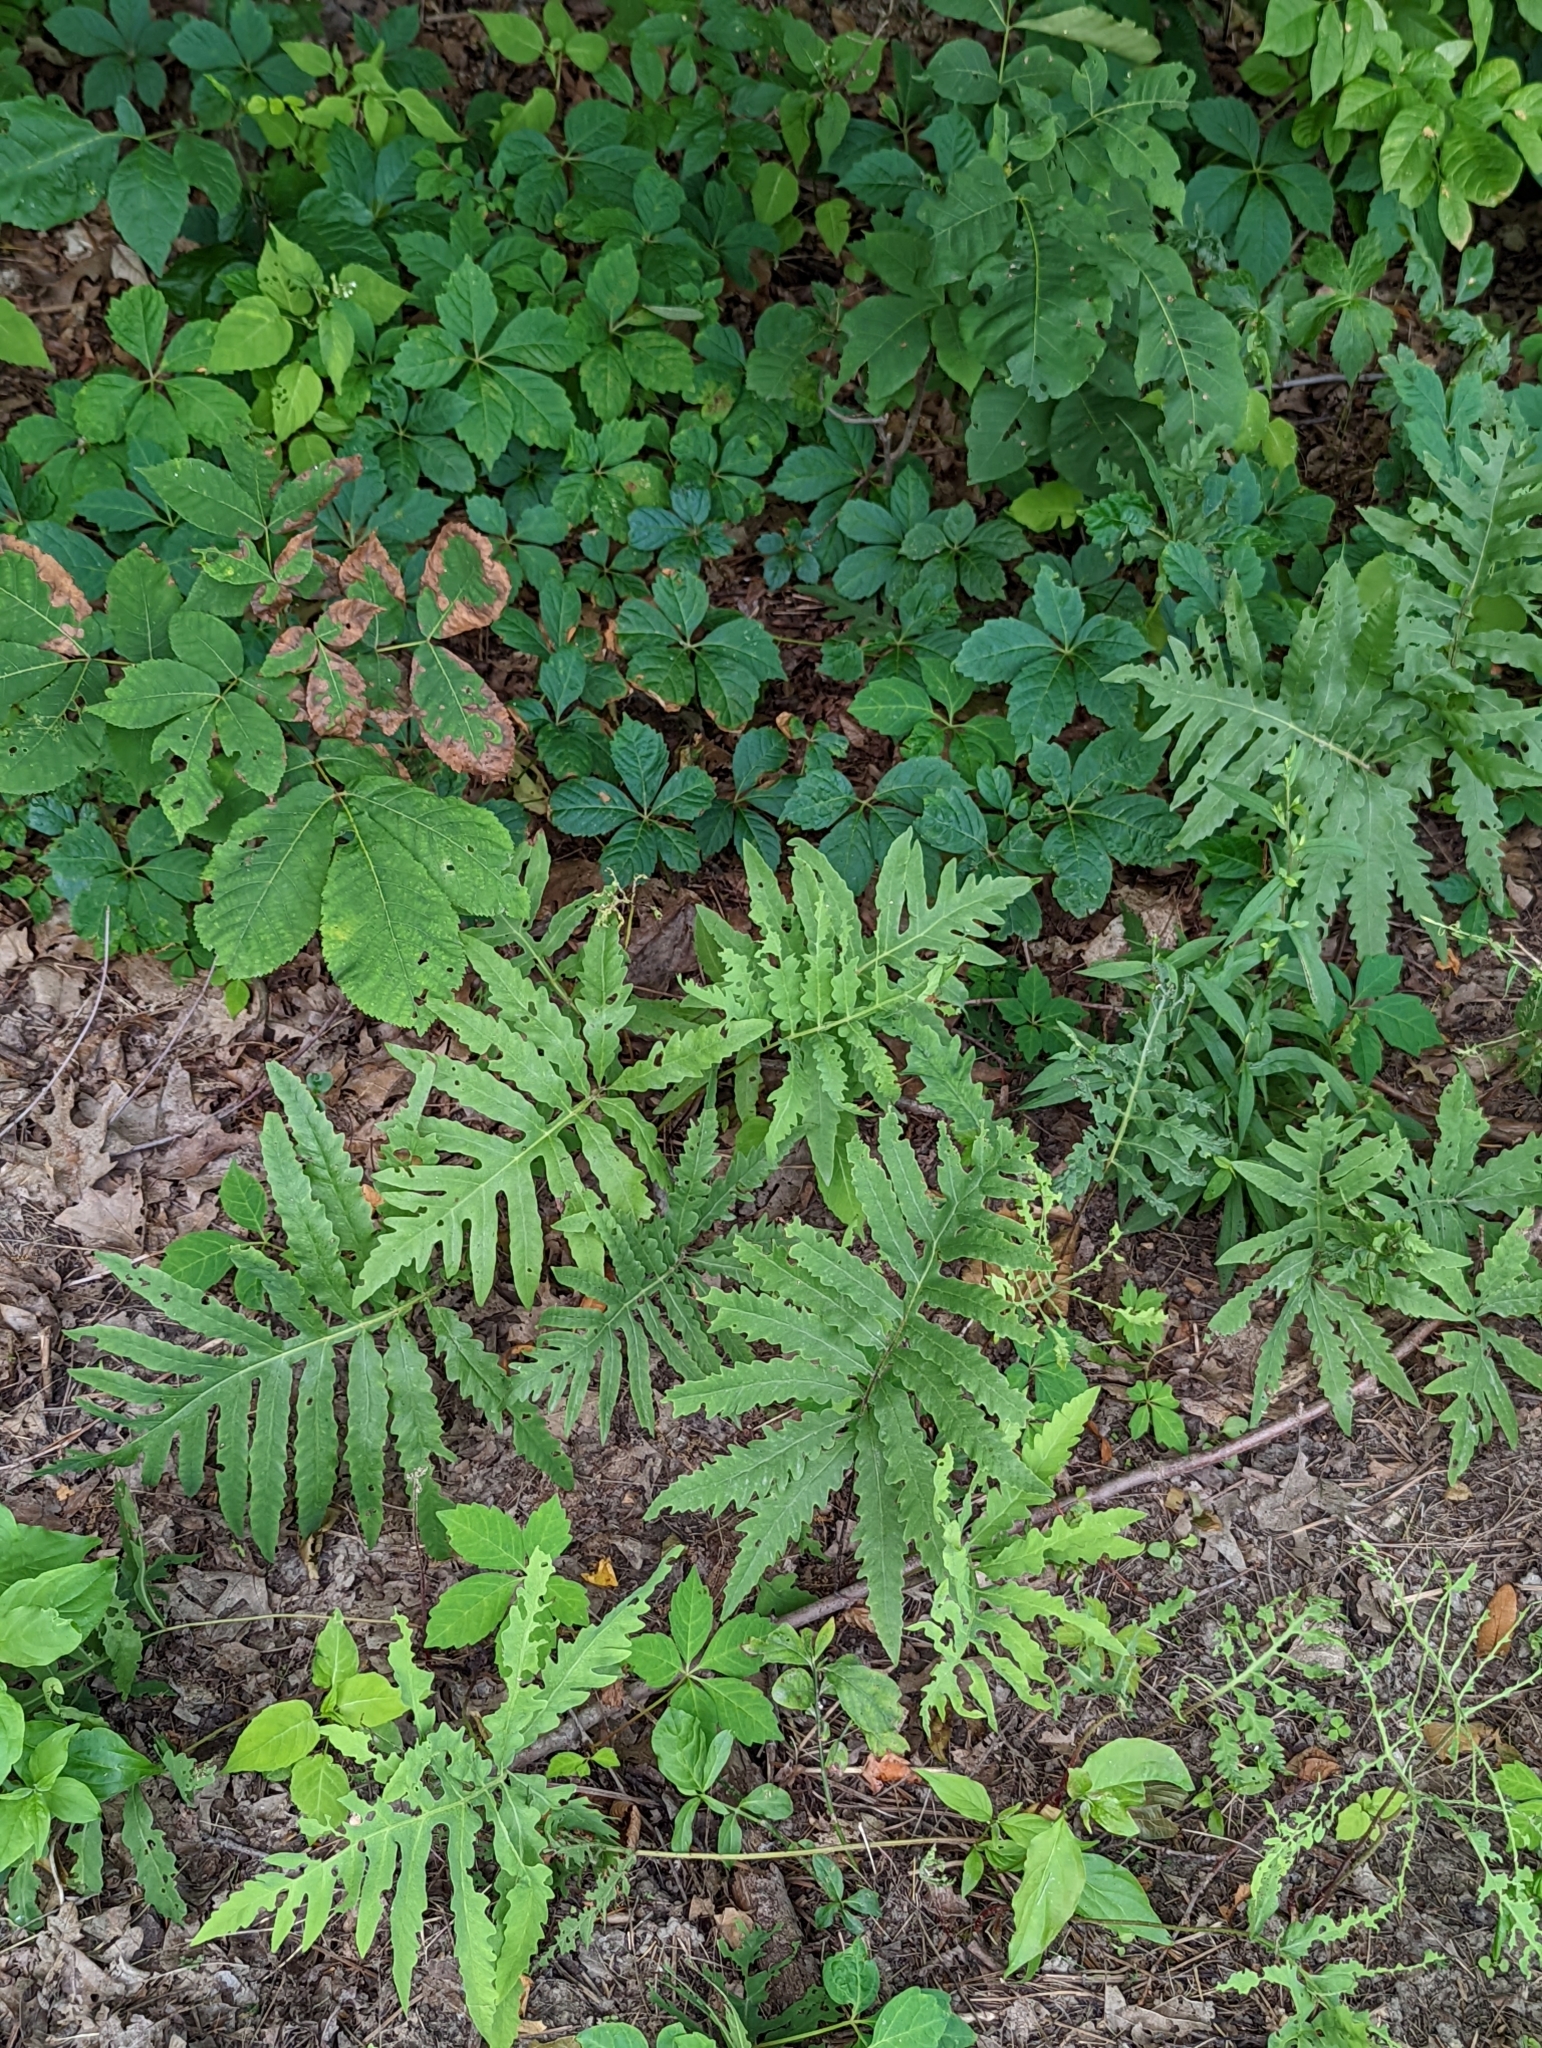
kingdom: Plantae
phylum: Tracheophyta
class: Polypodiopsida
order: Polypodiales
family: Onocleaceae
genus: Onoclea
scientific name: Onoclea sensibilis
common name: Sensitive fern
